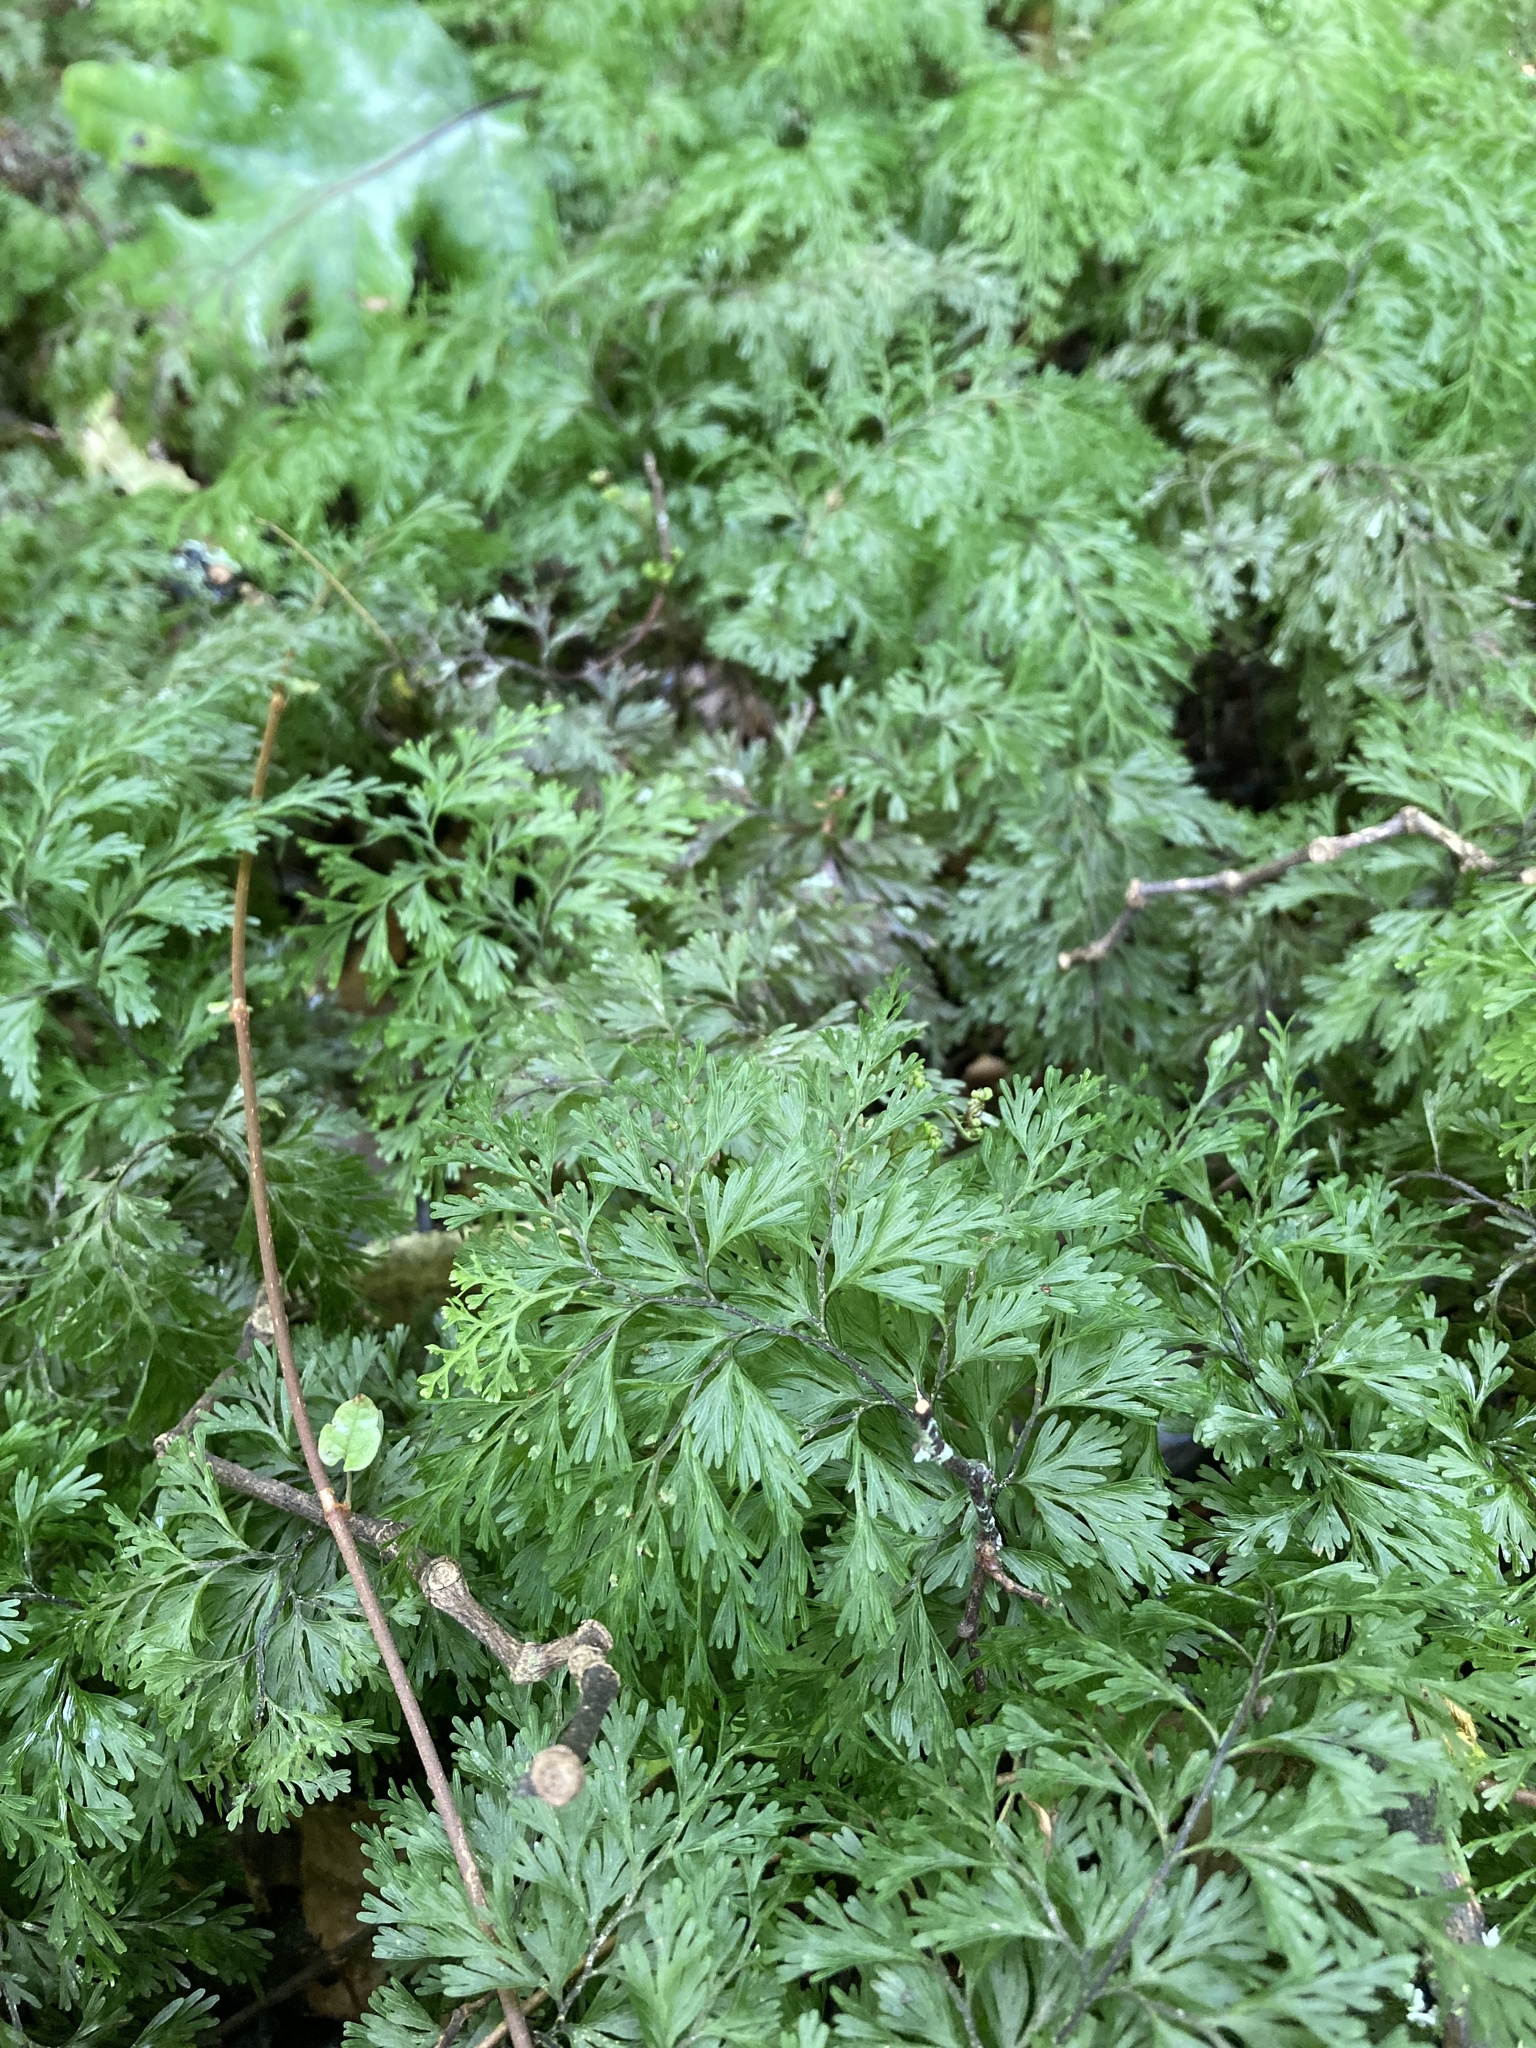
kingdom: Plantae
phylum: Tracheophyta
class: Polypodiopsida
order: Hymenophyllales
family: Hymenophyllaceae
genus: Hymenophyllum
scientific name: Hymenophyllum demissum
